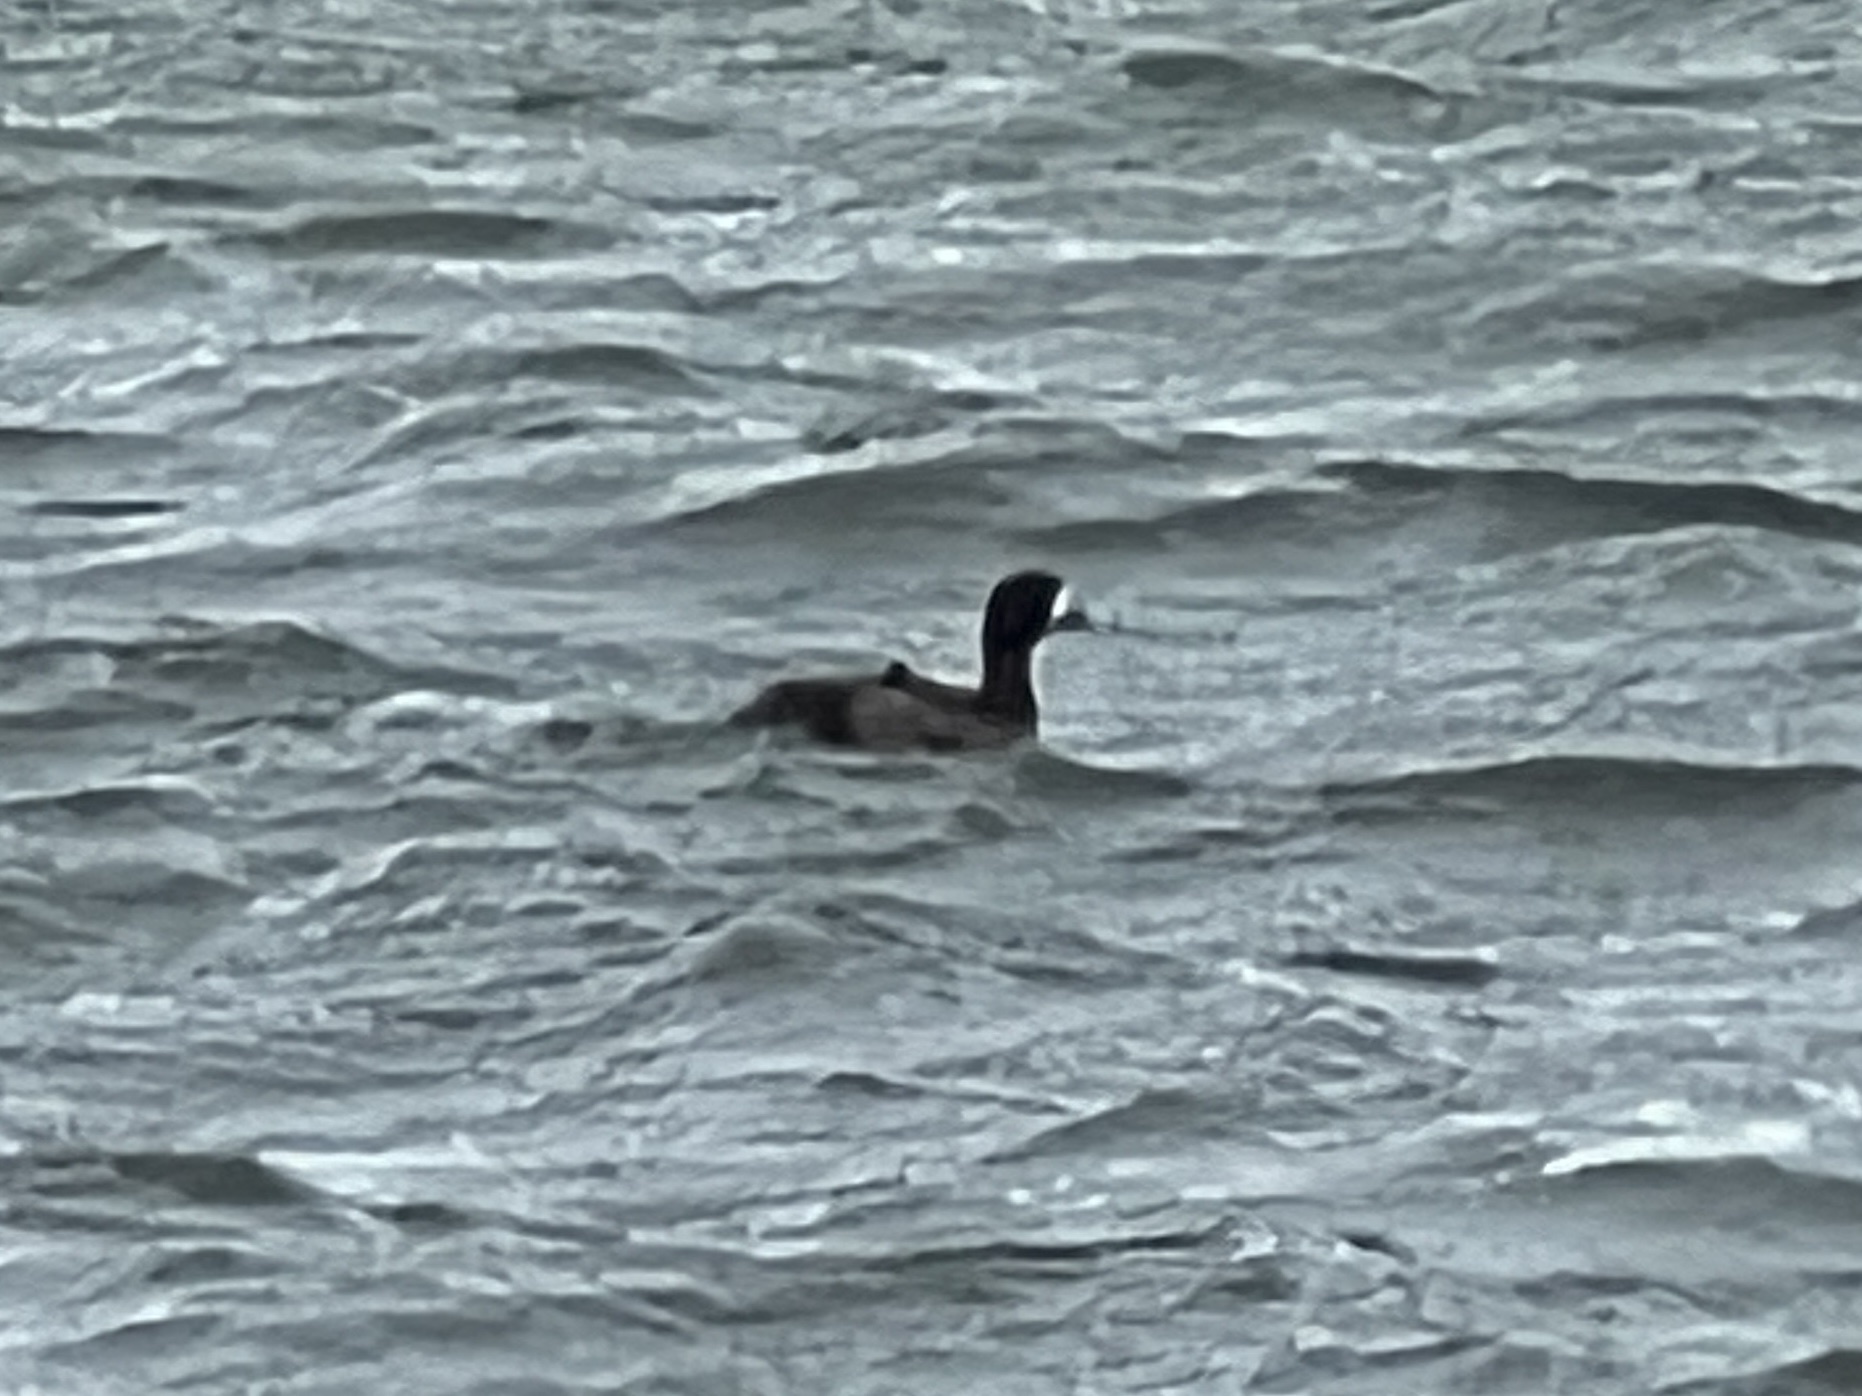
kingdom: Animalia
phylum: Chordata
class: Aves
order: Anseriformes
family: Anatidae
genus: Aythya
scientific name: Aythya marila
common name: Greater scaup
